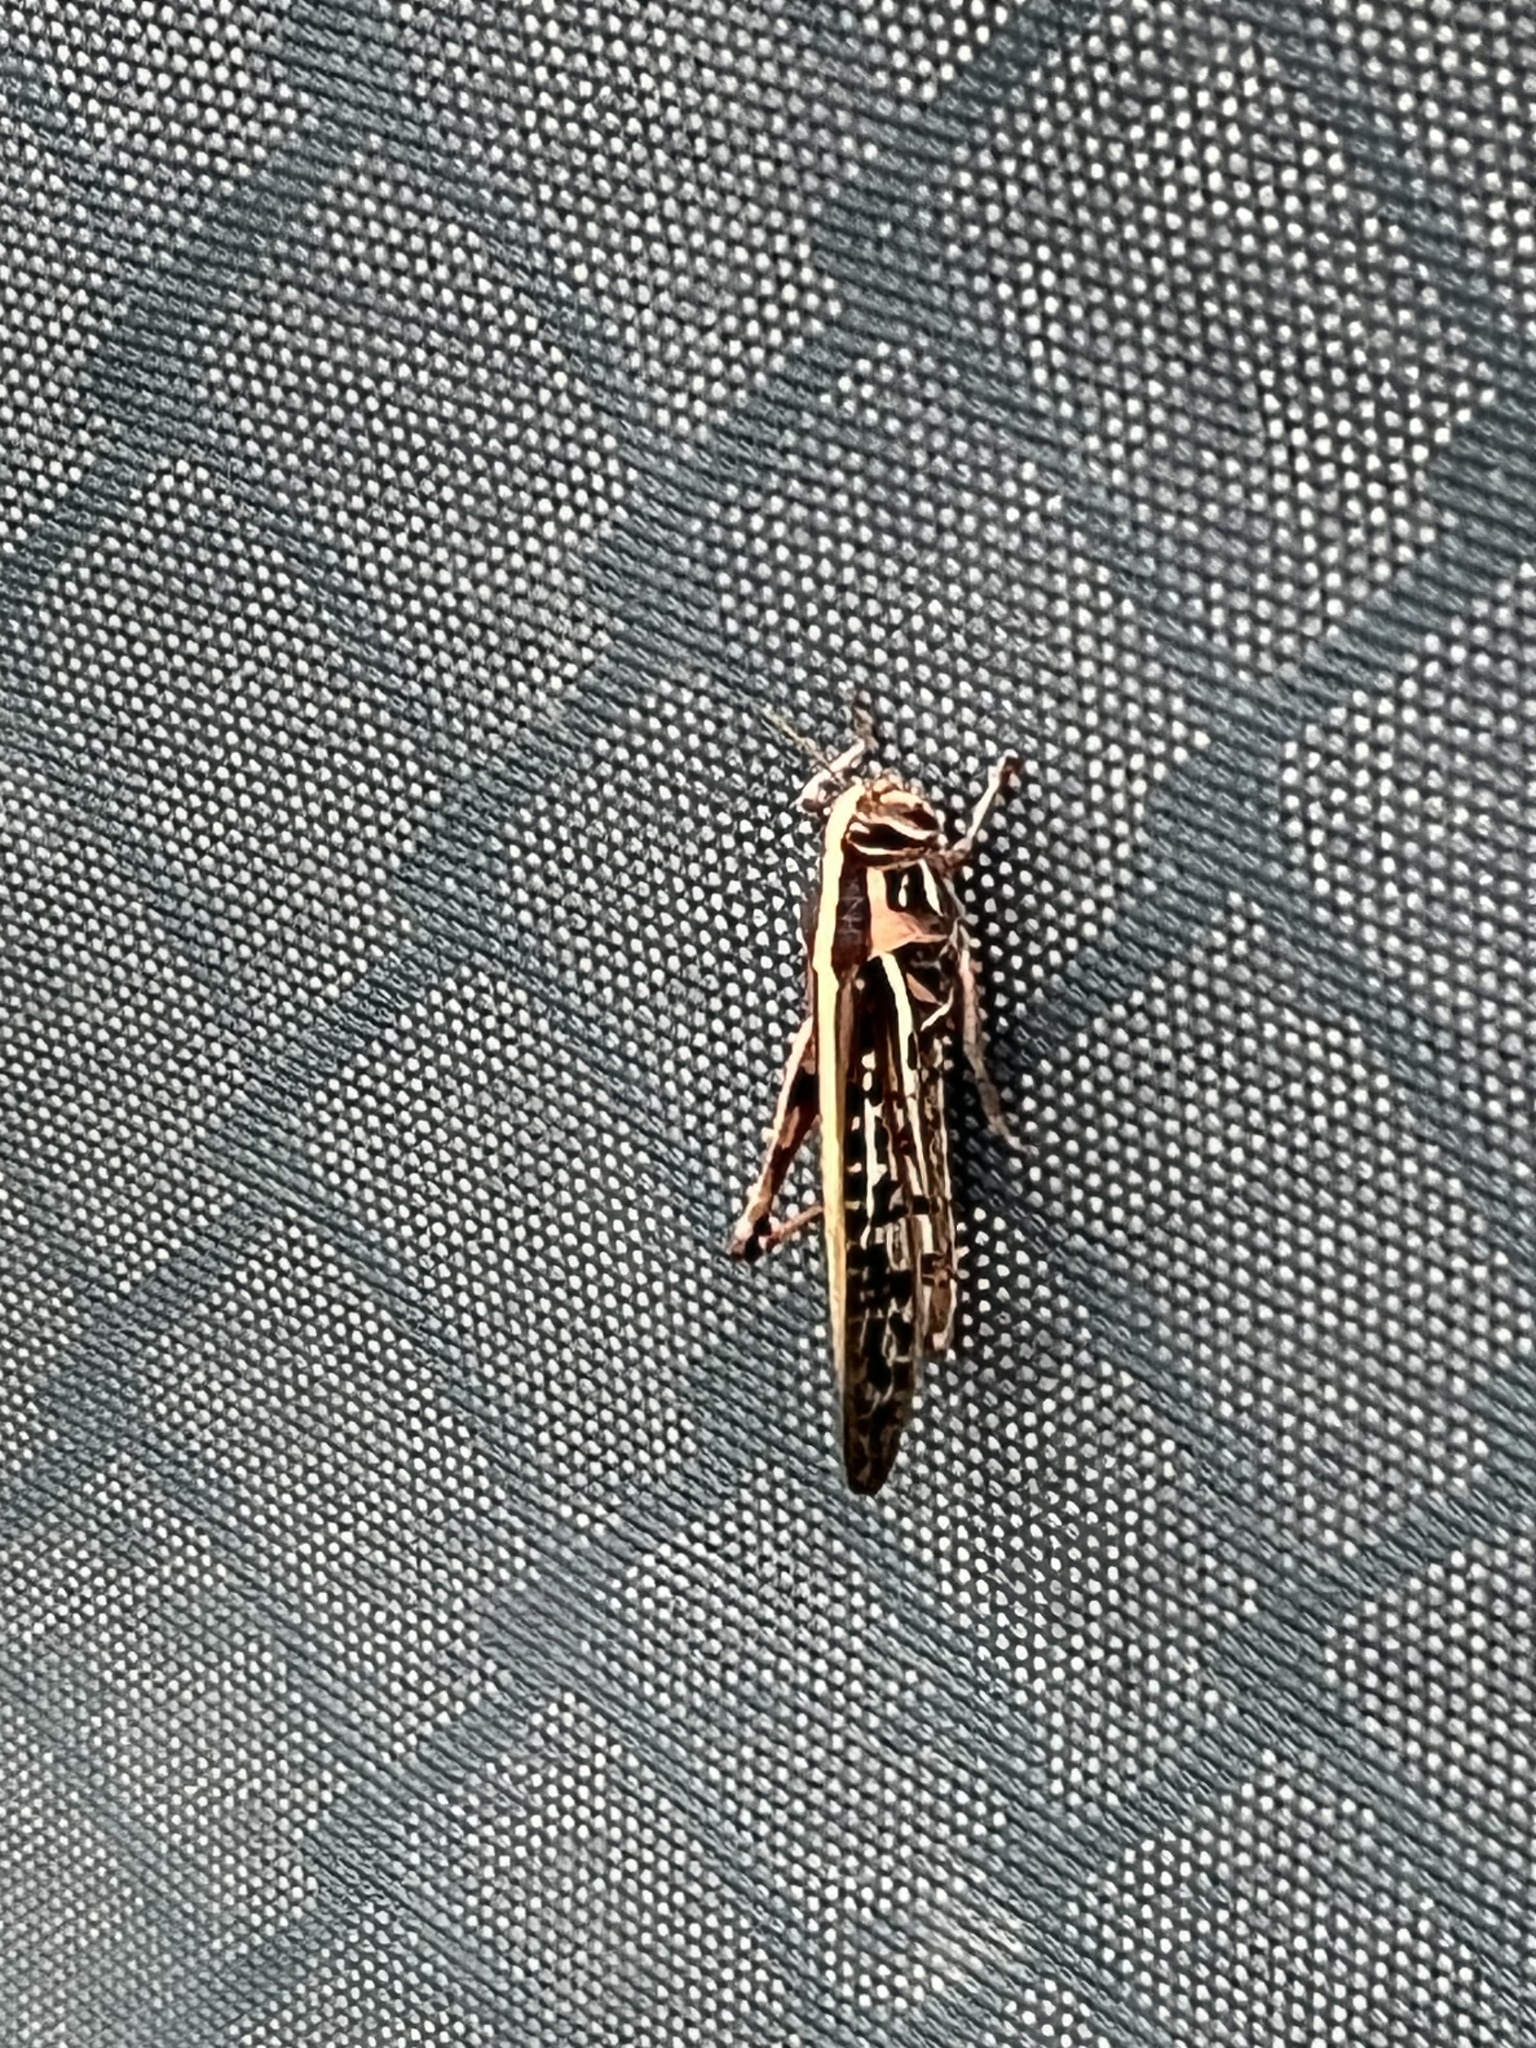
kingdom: Animalia
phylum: Arthropoda
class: Insecta
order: Orthoptera
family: Acrididae
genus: Schistocerca
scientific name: Schistocerca americana
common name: American bird locust
